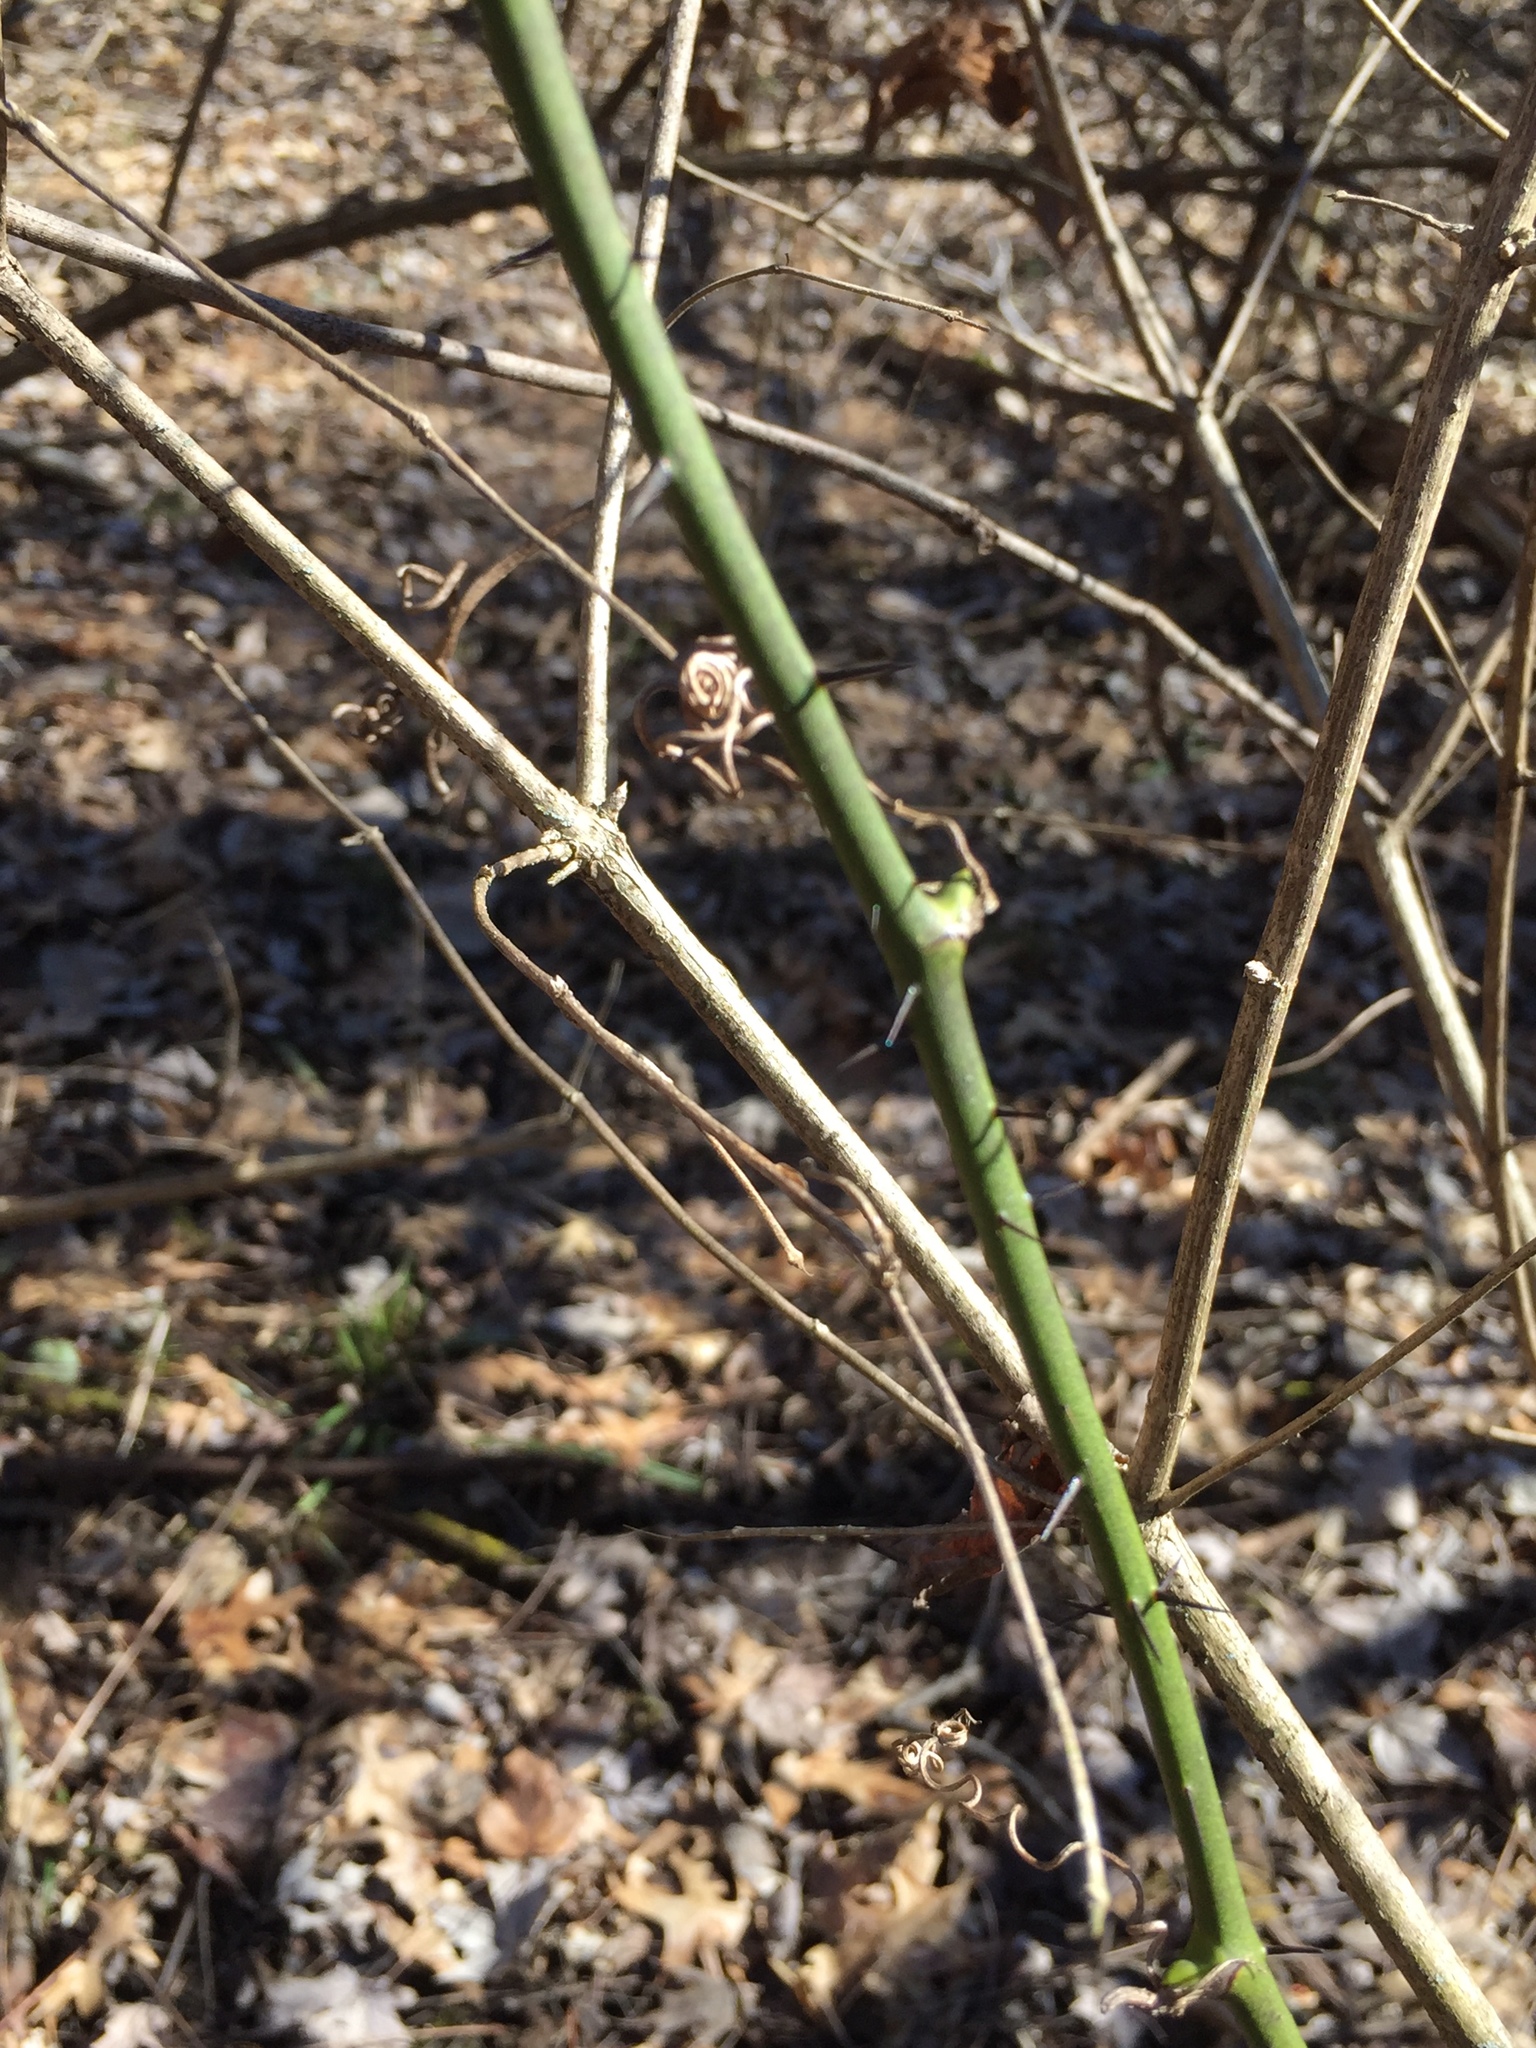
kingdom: Plantae
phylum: Tracheophyta
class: Liliopsida
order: Liliales
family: Smilacaceae
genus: Smilax
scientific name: Smilax tamnoides
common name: Hellfetter
